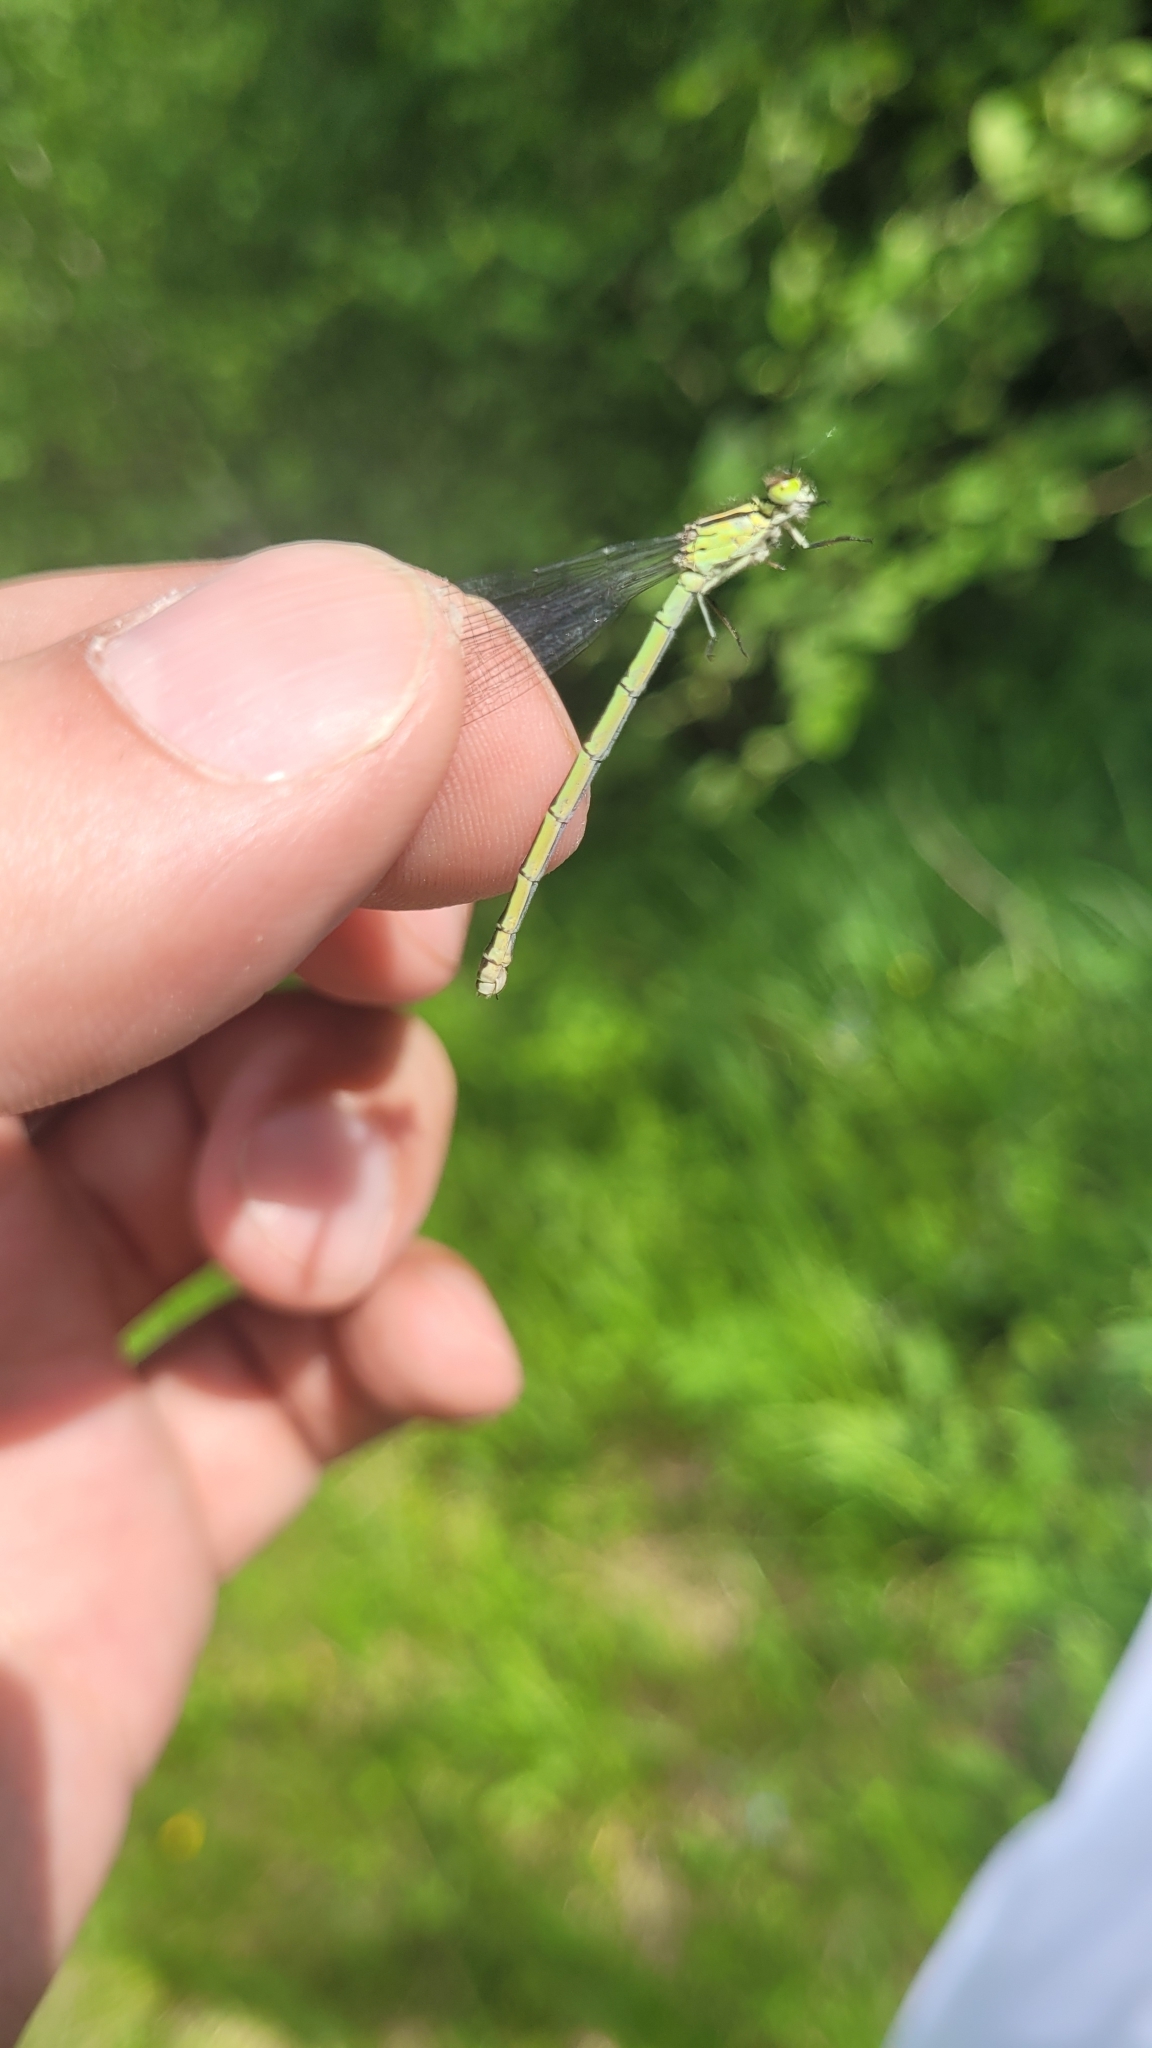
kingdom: Animalia
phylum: Arthropoda
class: Insecta
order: Odonata
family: Coenagrionidae
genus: Coenagrion
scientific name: Coenagrion hastulatum
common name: Spearhead bluet
